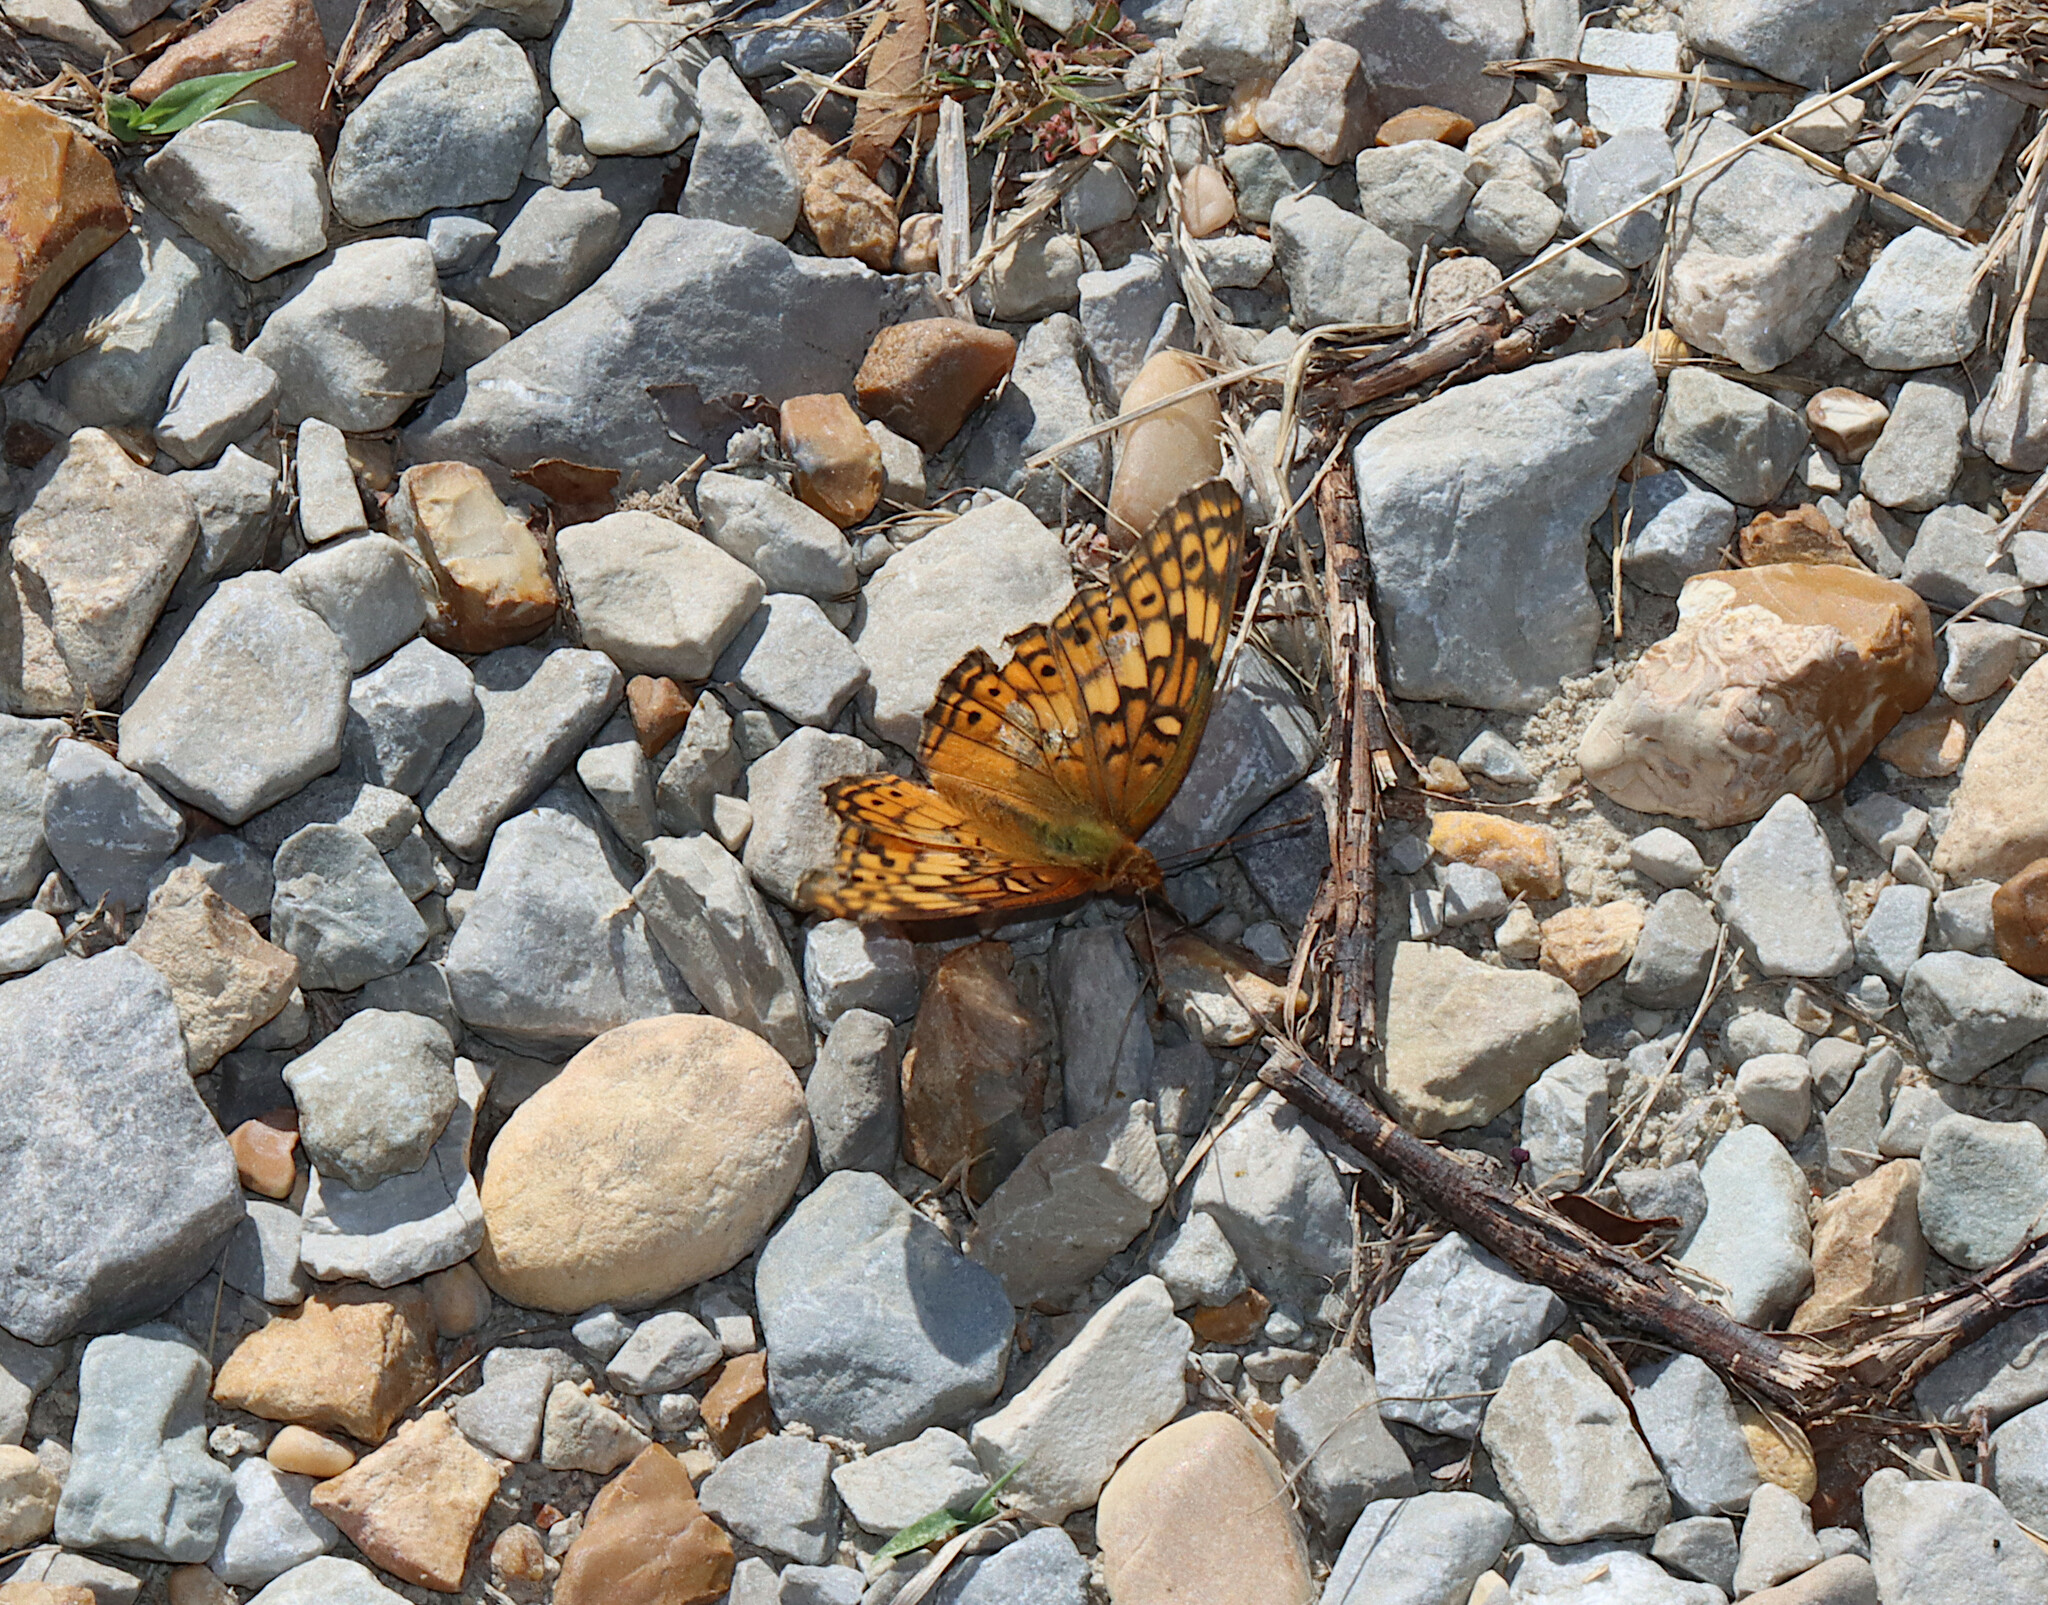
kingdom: Animalia
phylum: Arthropoda
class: Insecta
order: Lepidoptera
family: Nymphalidae
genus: Euptoieta
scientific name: Euptoieta claudia
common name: Variegated fritillary
